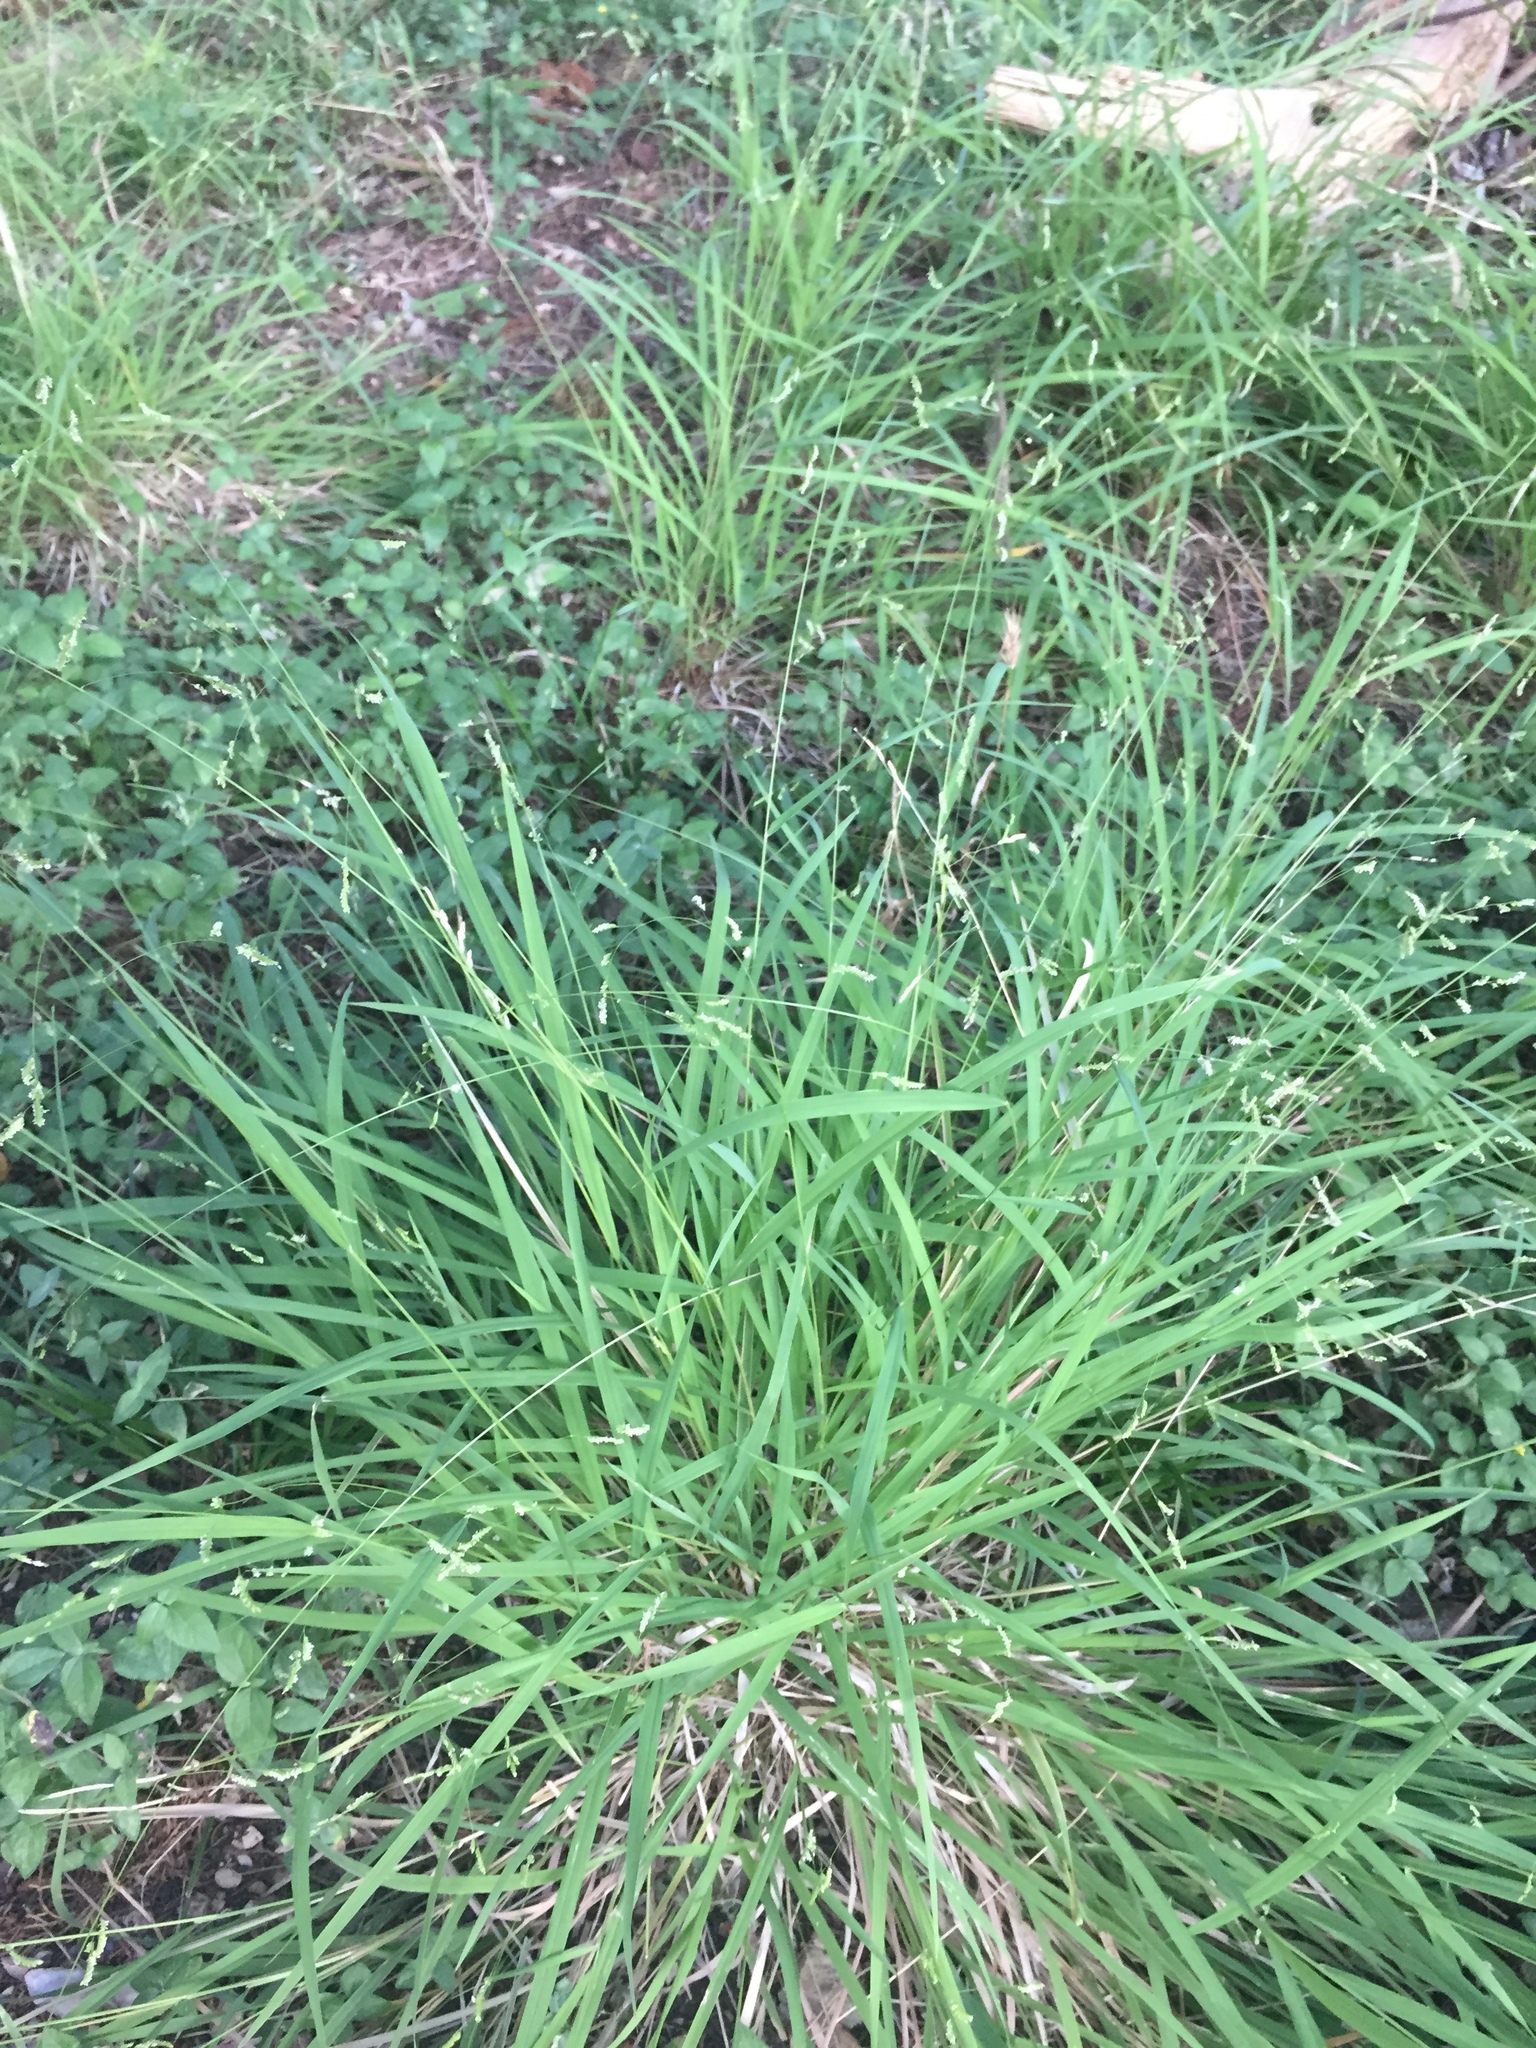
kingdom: Plantae
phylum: Tracheophyta
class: Liliopsida
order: Poales
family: Poaceae
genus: Leersia
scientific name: Leersia monandra
